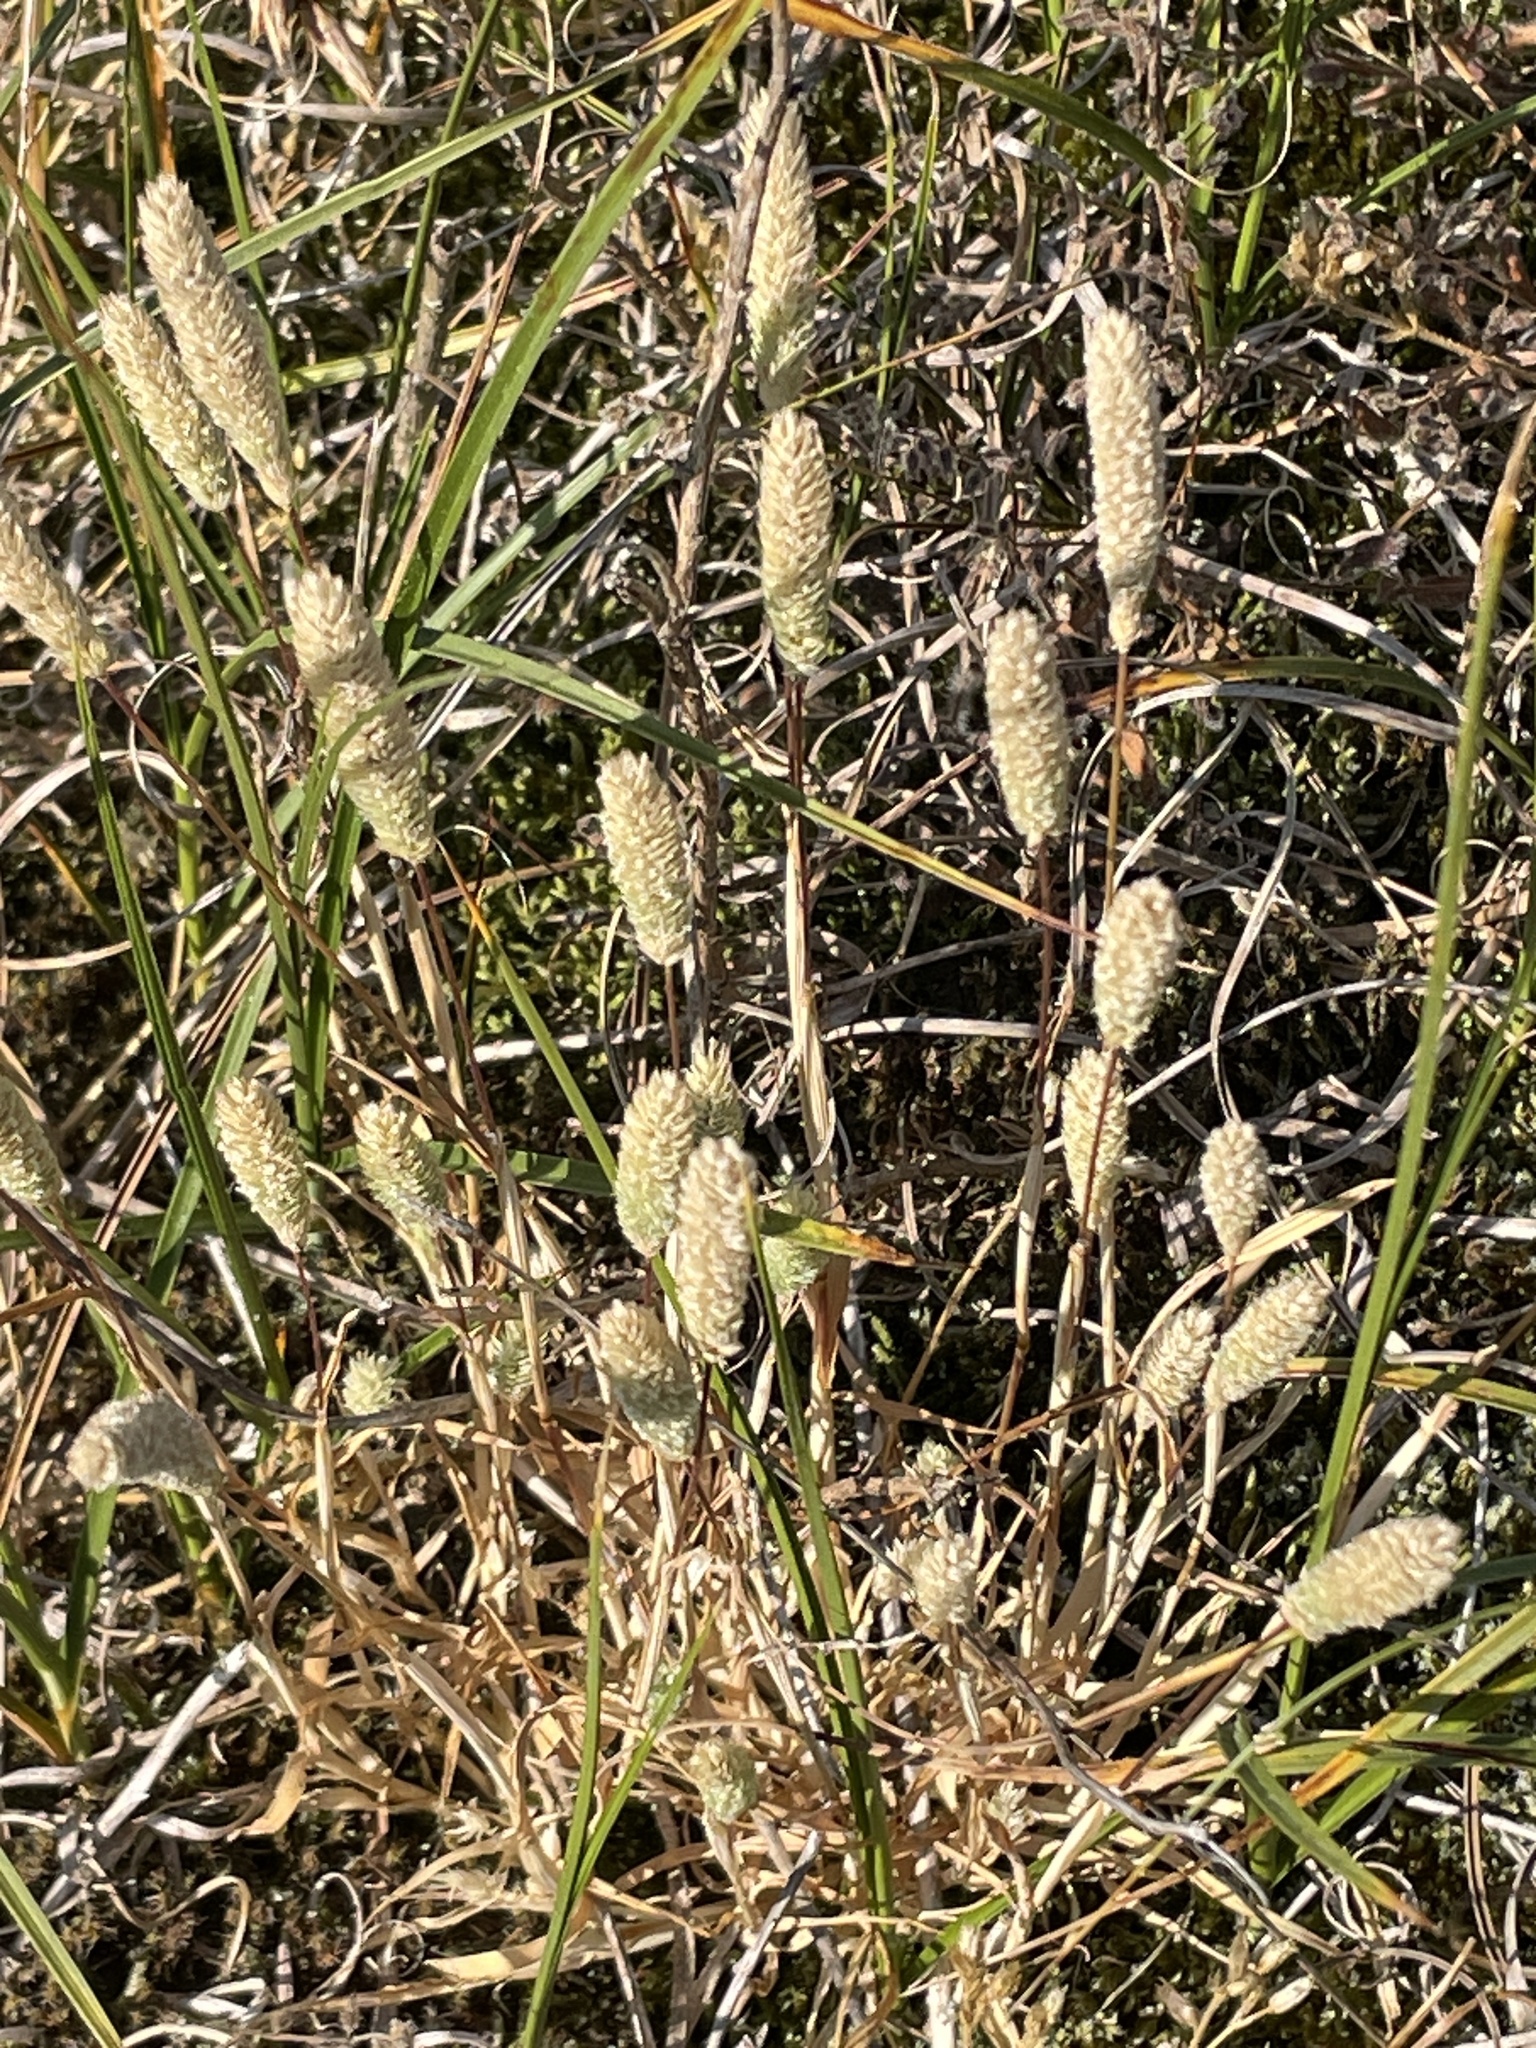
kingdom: Plantae
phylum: Tracheophyta
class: Liliopsida
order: Poales
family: Poaceae
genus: Phleum
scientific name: Phleum arenarium
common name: Sand cat's-tail
